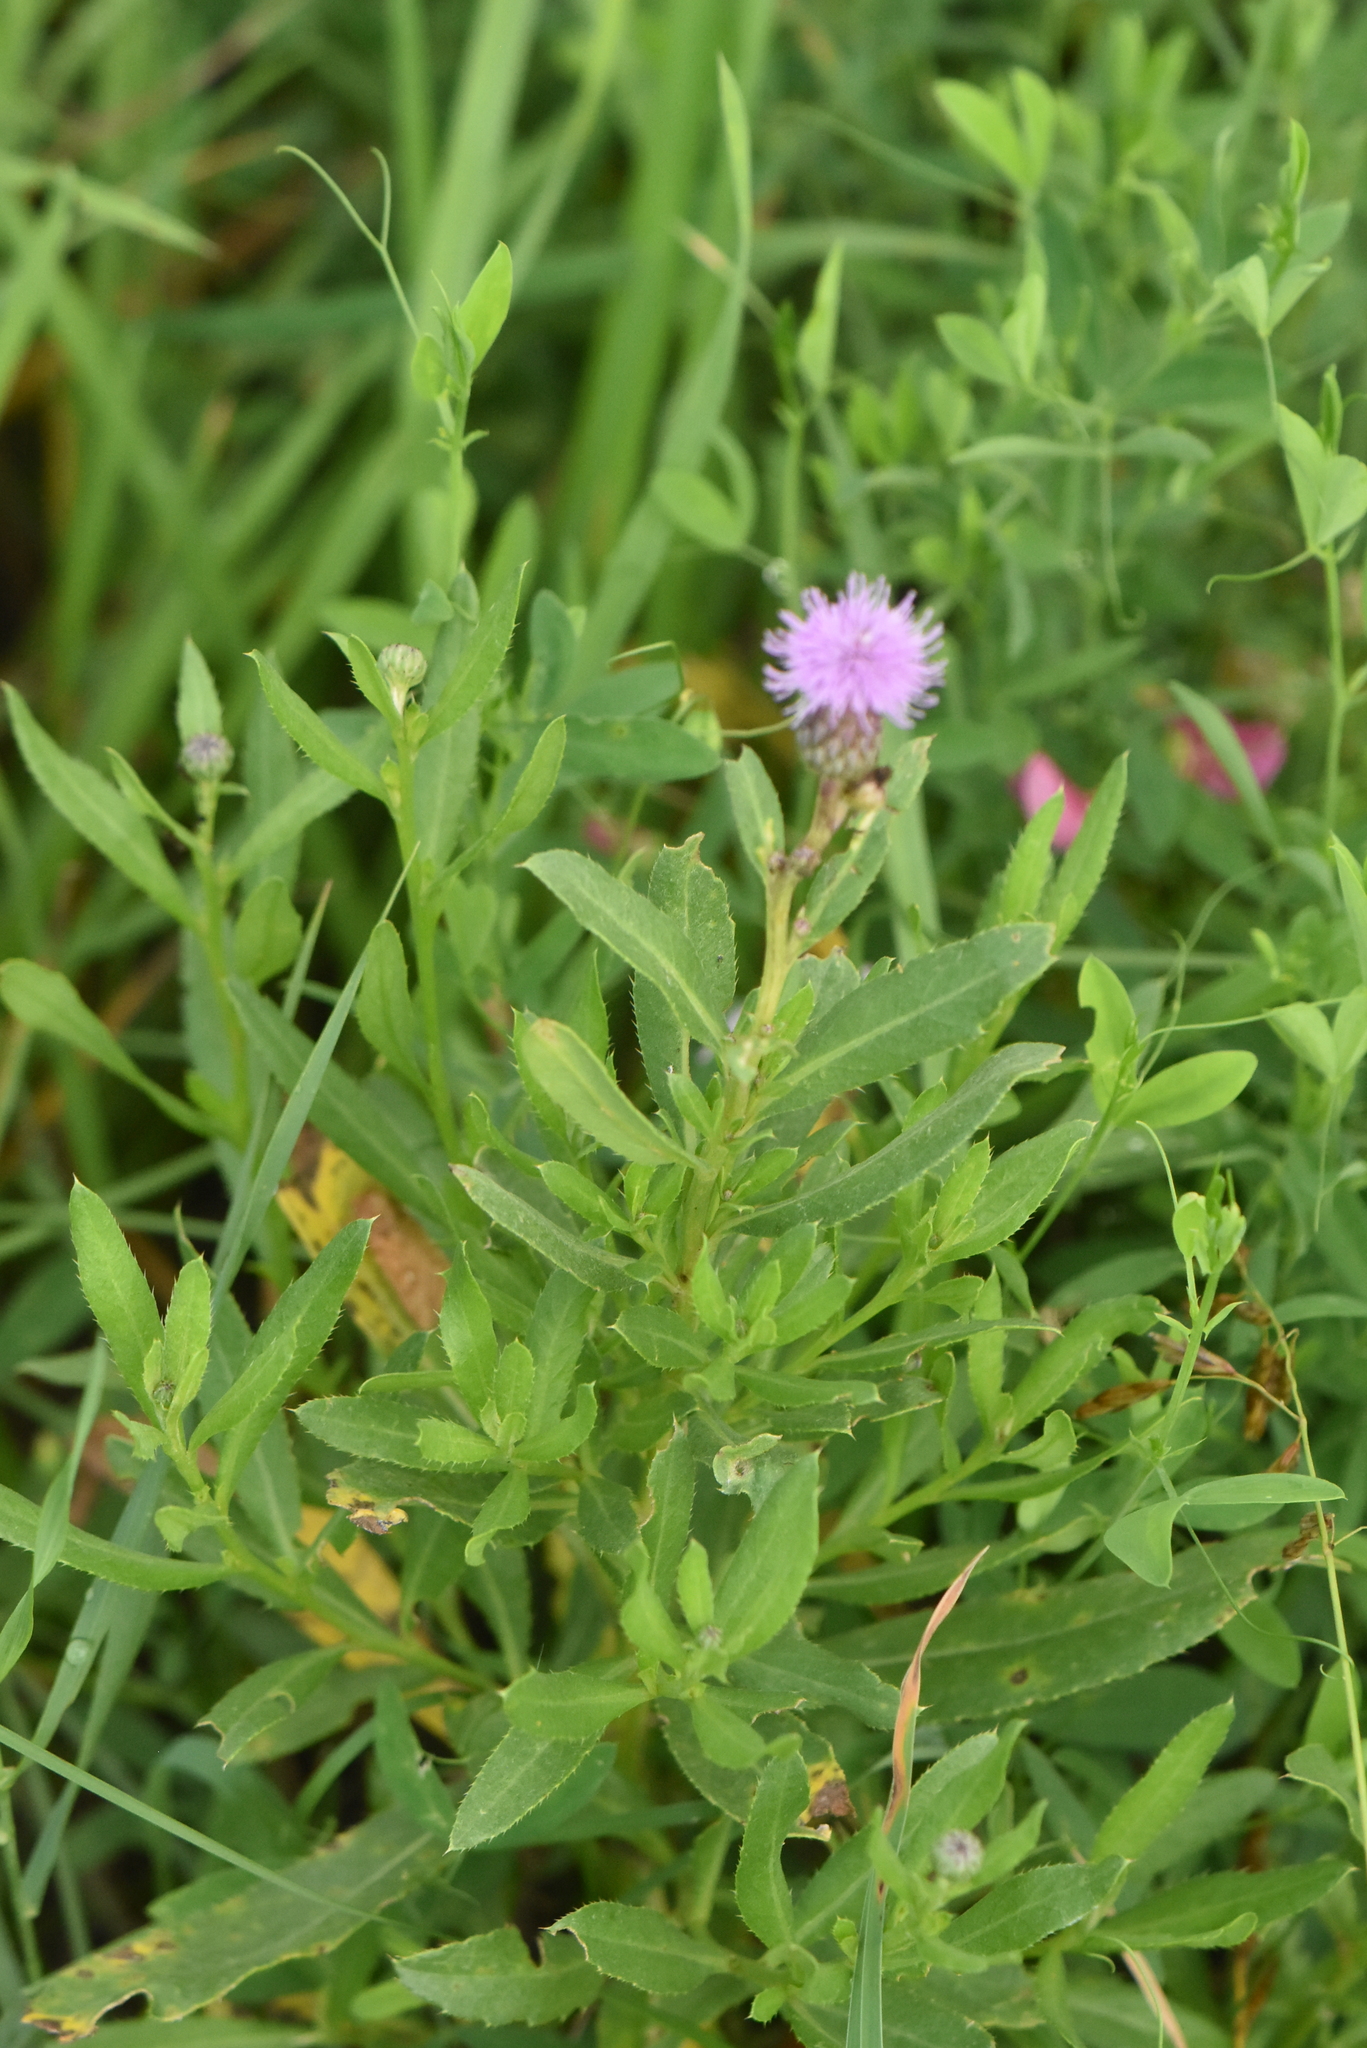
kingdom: Plantae
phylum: Tracheophyta
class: Magnoliopsida
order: Asterales
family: Asteraceae
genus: Cirsium
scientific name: Cirsium arvense
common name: Creeping thistle
